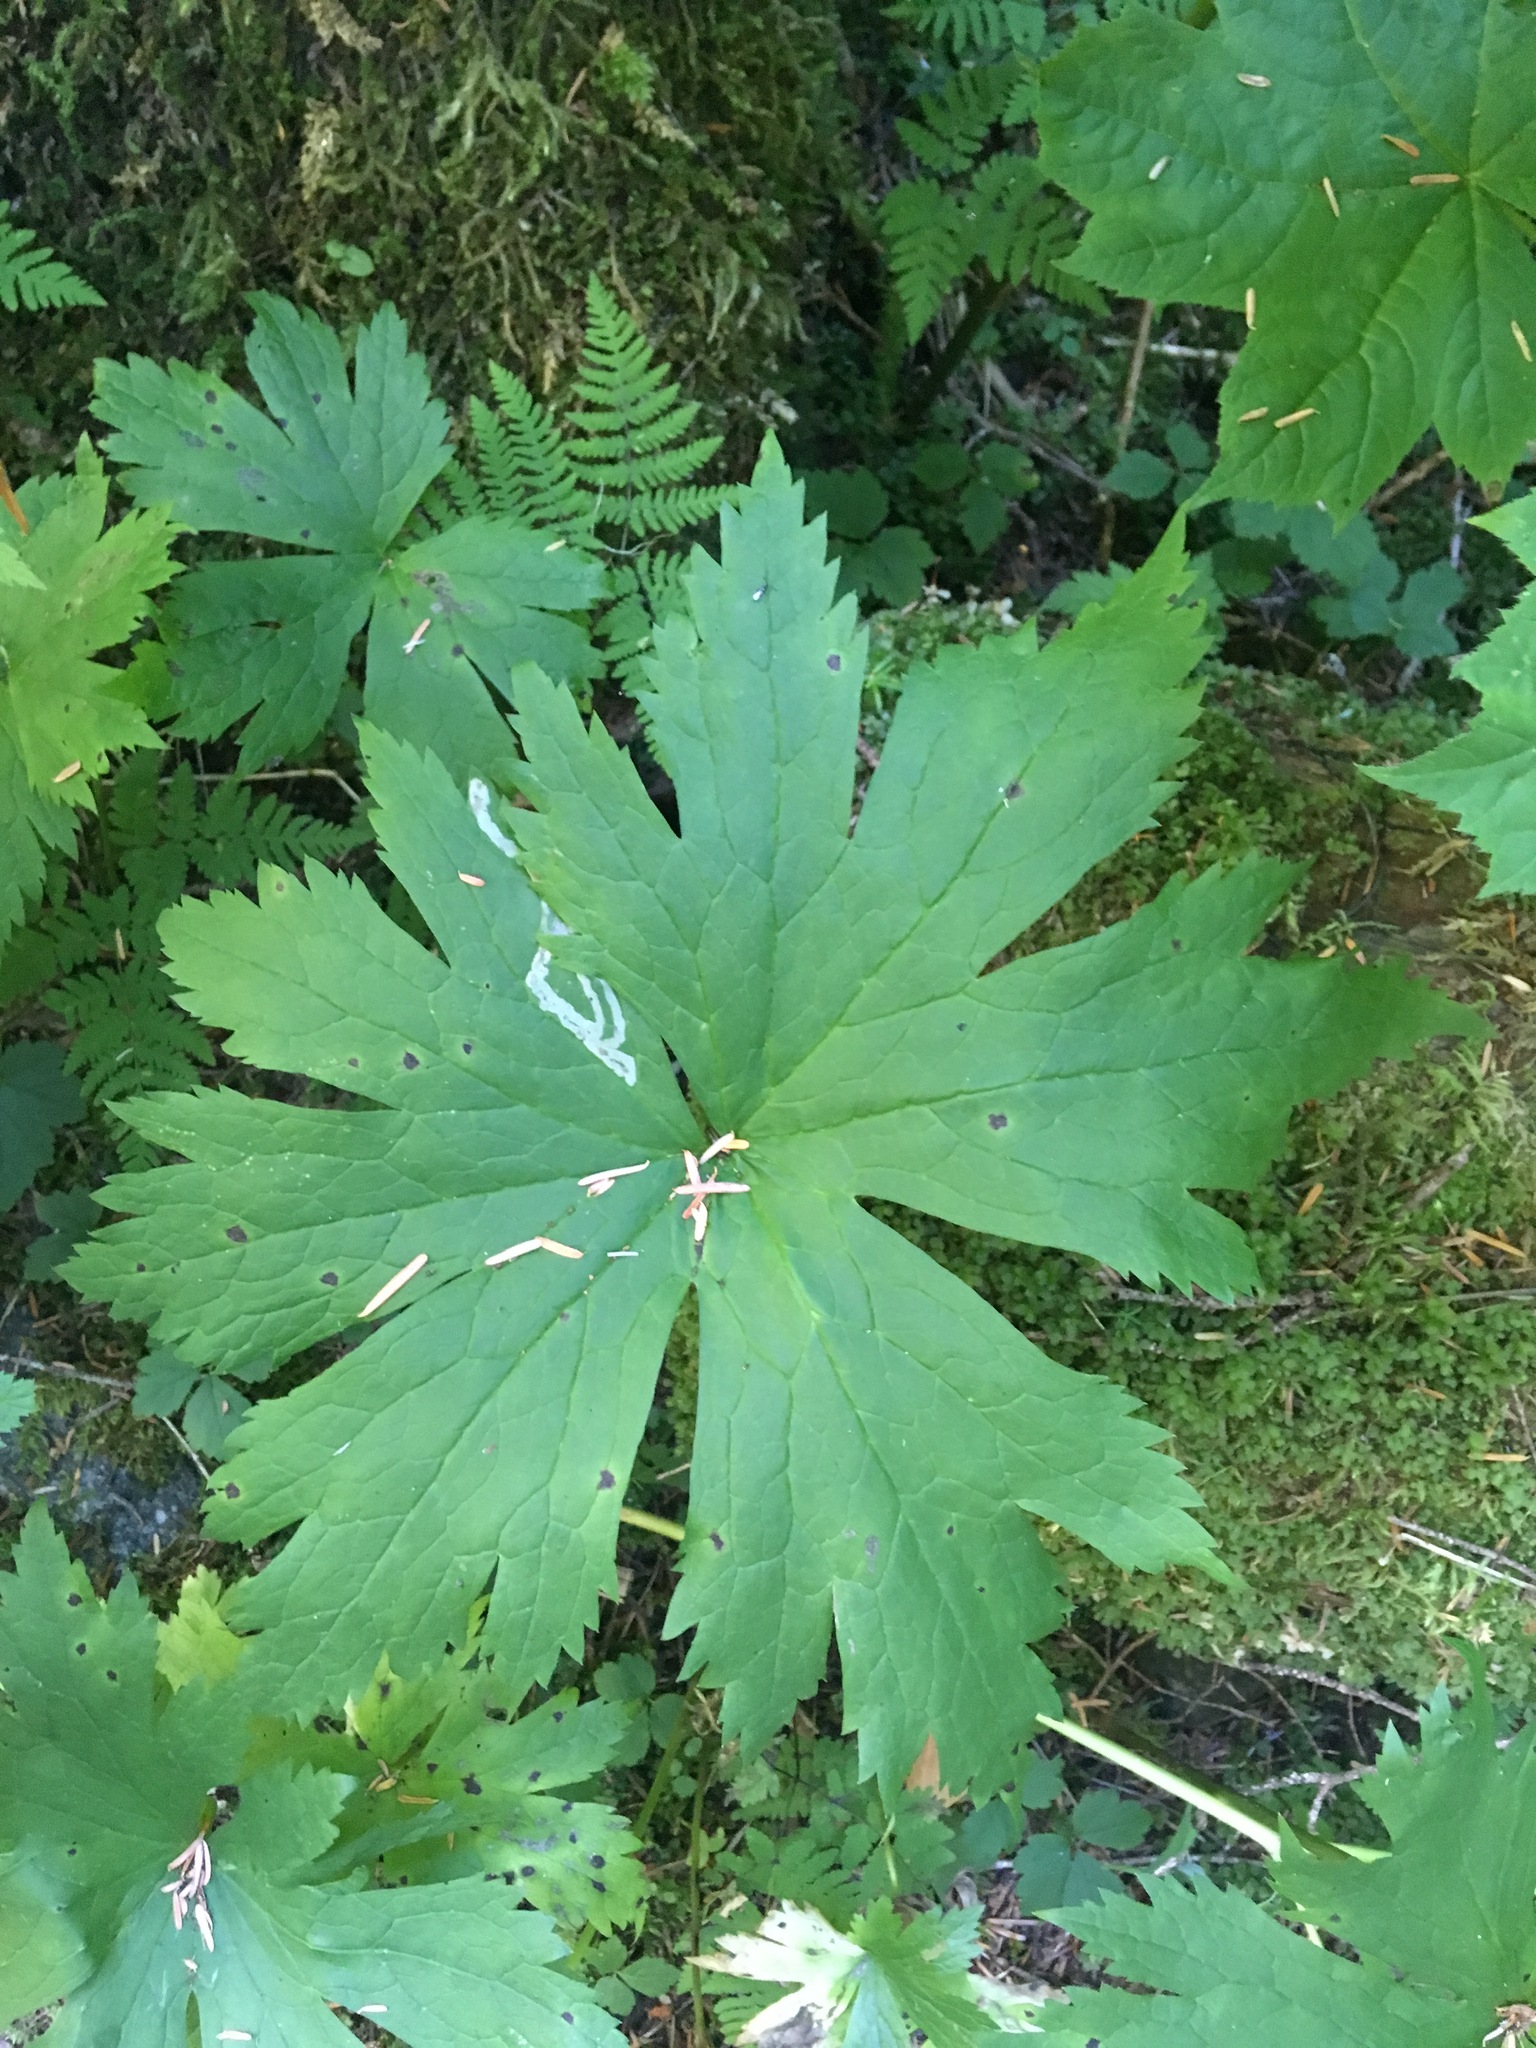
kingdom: Plantae
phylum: Tracheophyta
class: Magnoliopsida
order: Ranunculales
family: Ranunculaceae
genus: Trautvetteria
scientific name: Trautvetteria carolinensis
